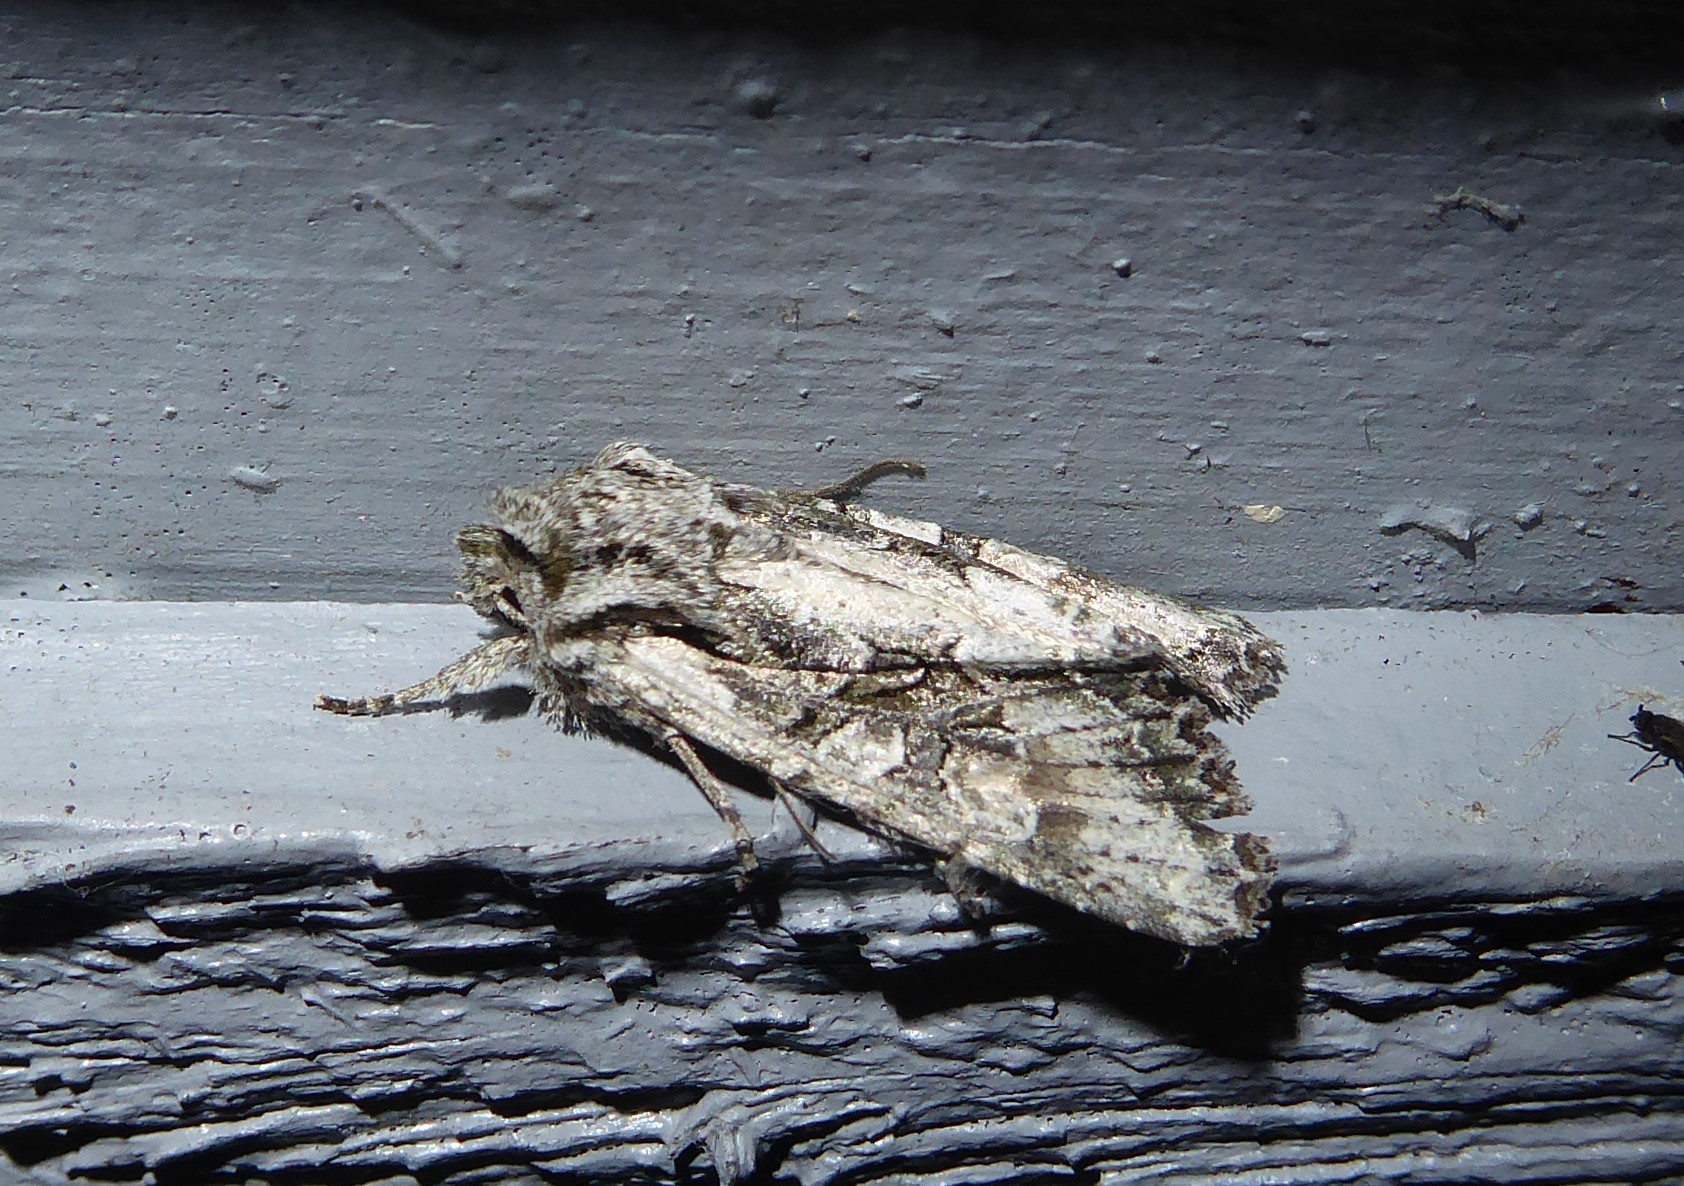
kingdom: Animalia
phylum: Arthropoda
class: Insecta
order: Lepidoptera
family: Noctuidae
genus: Ichneutica
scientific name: Ichneutica mutans
